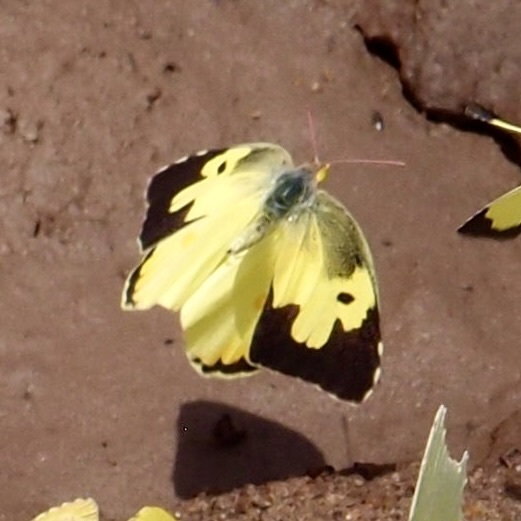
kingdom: Animalia
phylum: Arthropoda
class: Insecta
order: Lepidoptera
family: Pieridae
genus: Zerene
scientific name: Zerene cesonia
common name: Southern dogface
